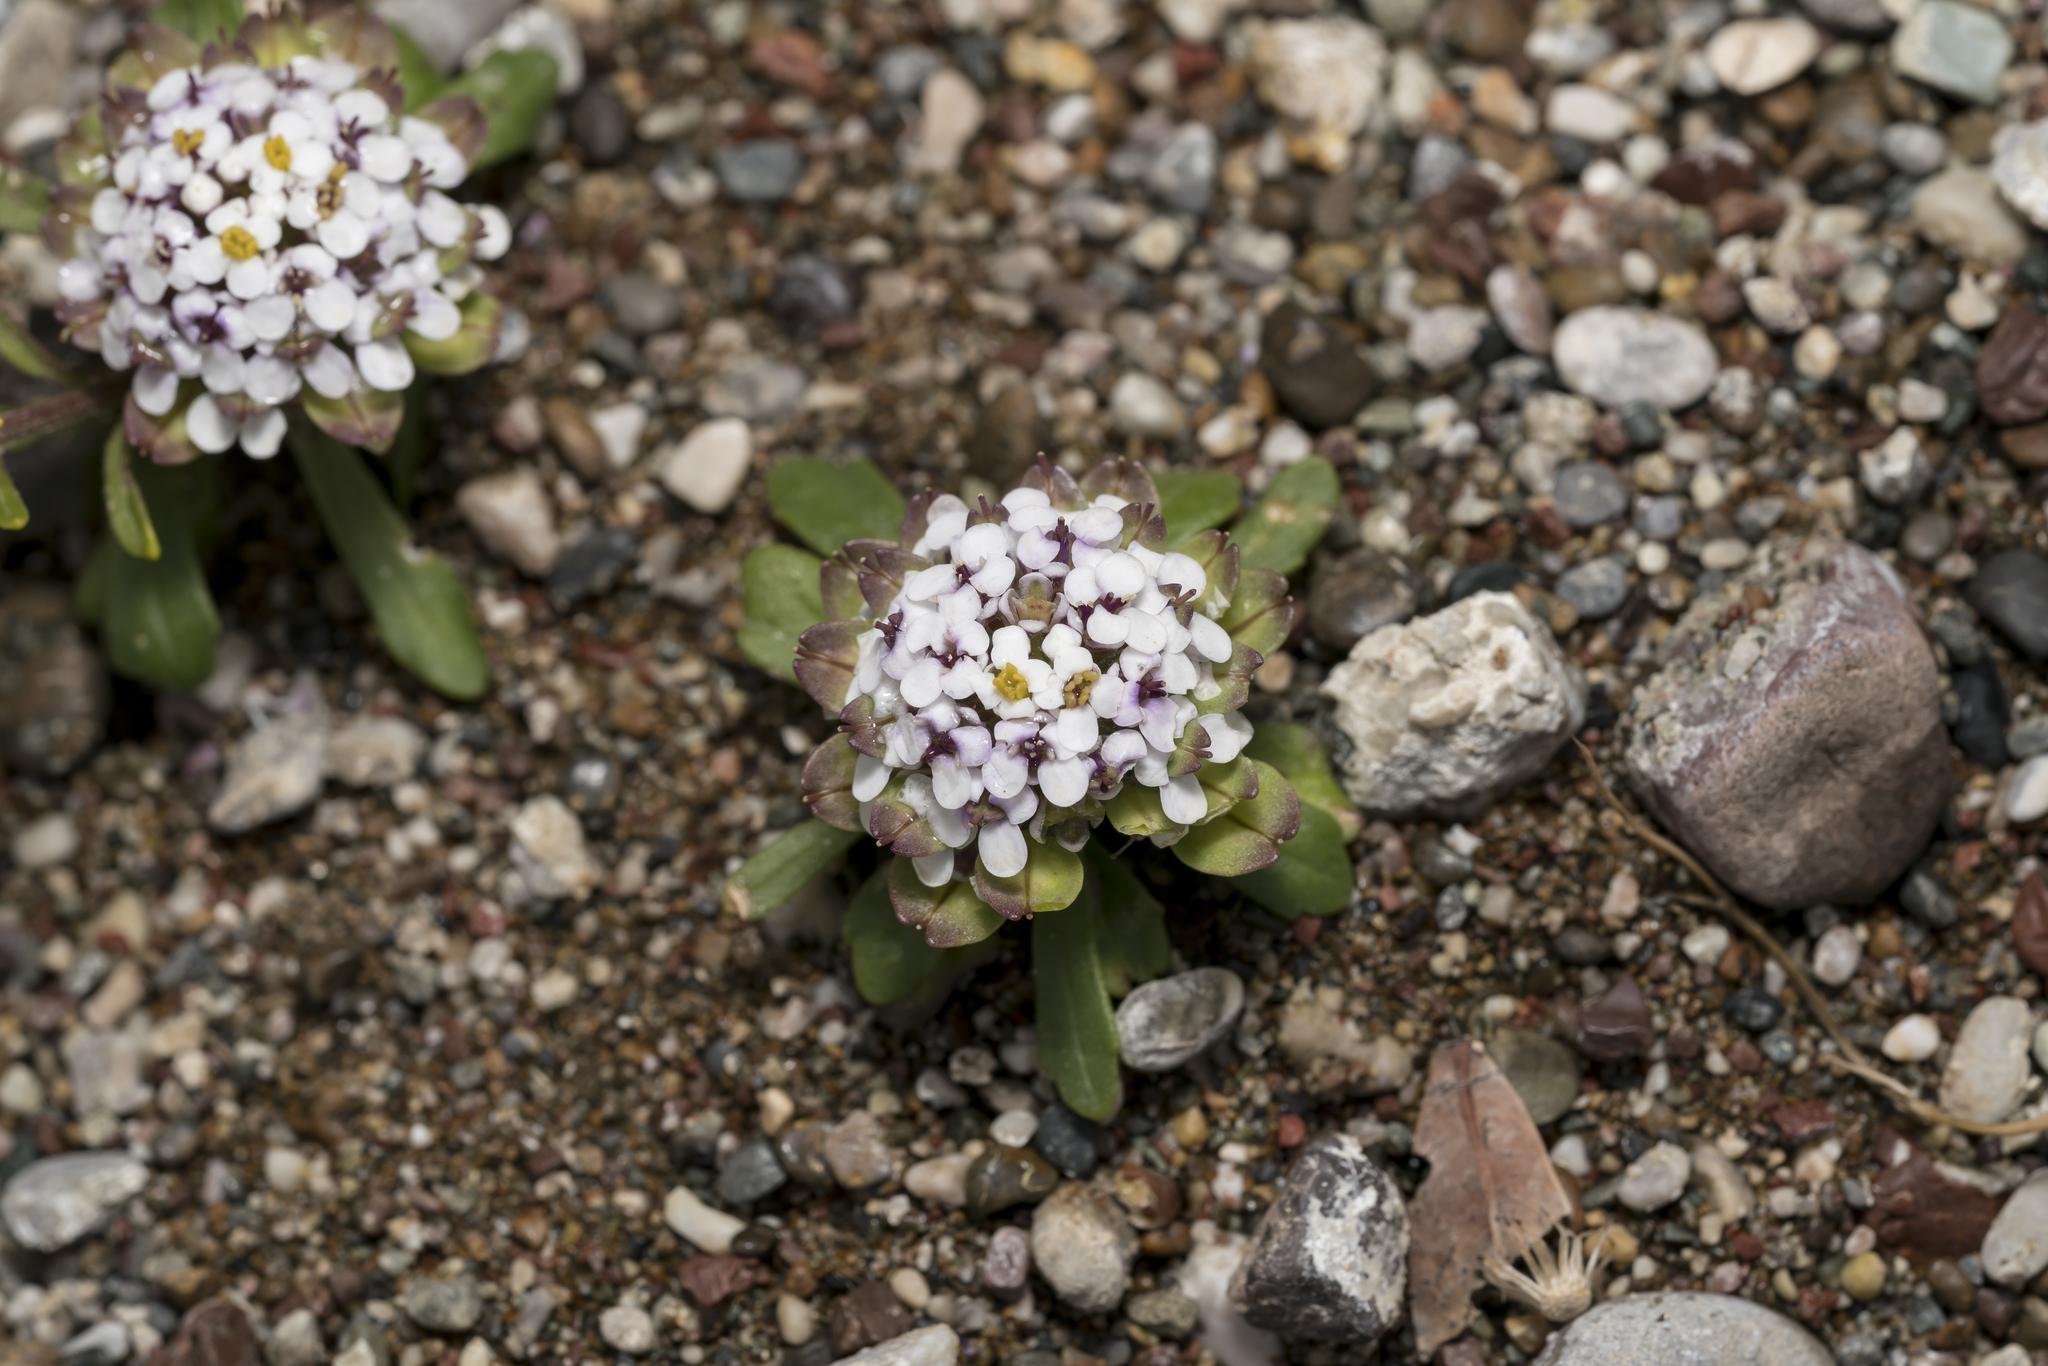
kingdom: Plantae
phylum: Tracheophyta
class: Magnoliopsida
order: Brassicales
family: Brassicaceae
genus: Iberis
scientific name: Iberis carnosa
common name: Pruit's candytuft
